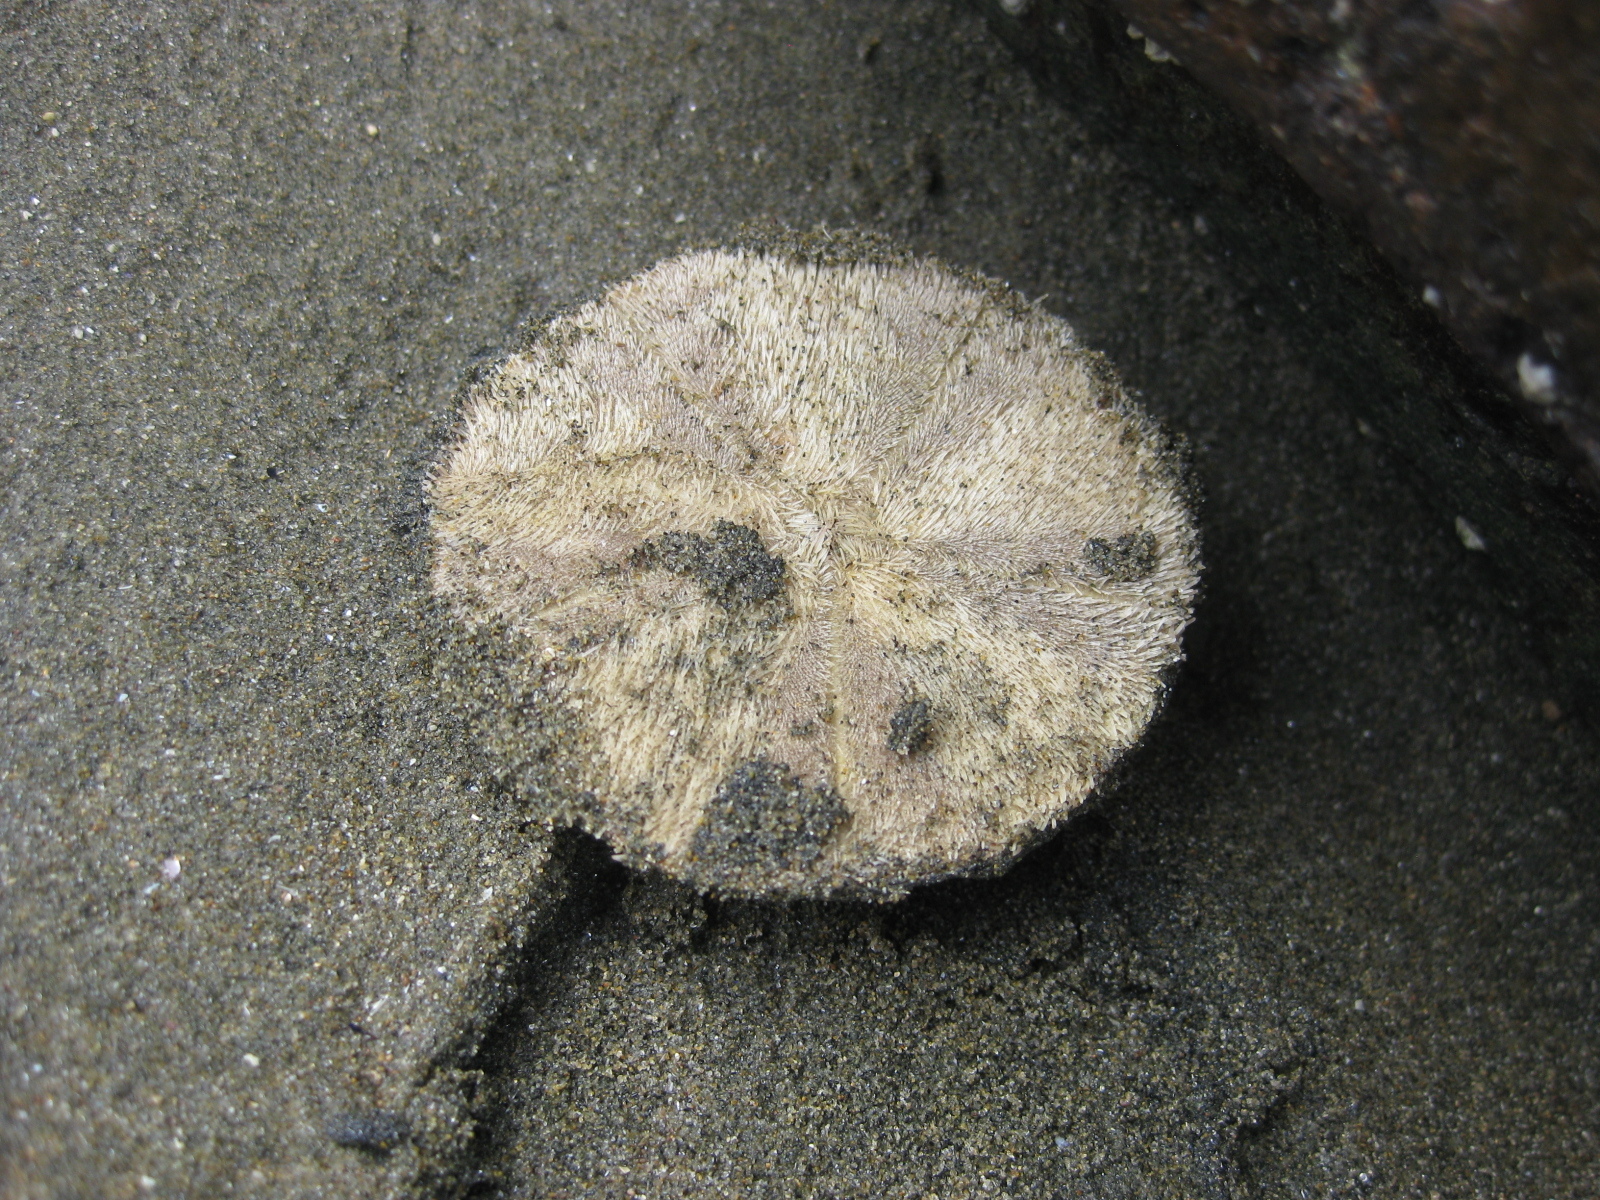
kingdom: Animalia
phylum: Echinodermata
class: Echinoidea
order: Clypeasteroida
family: Clypeasteridae
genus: Fellaster
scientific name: Fellaster zelandiae
